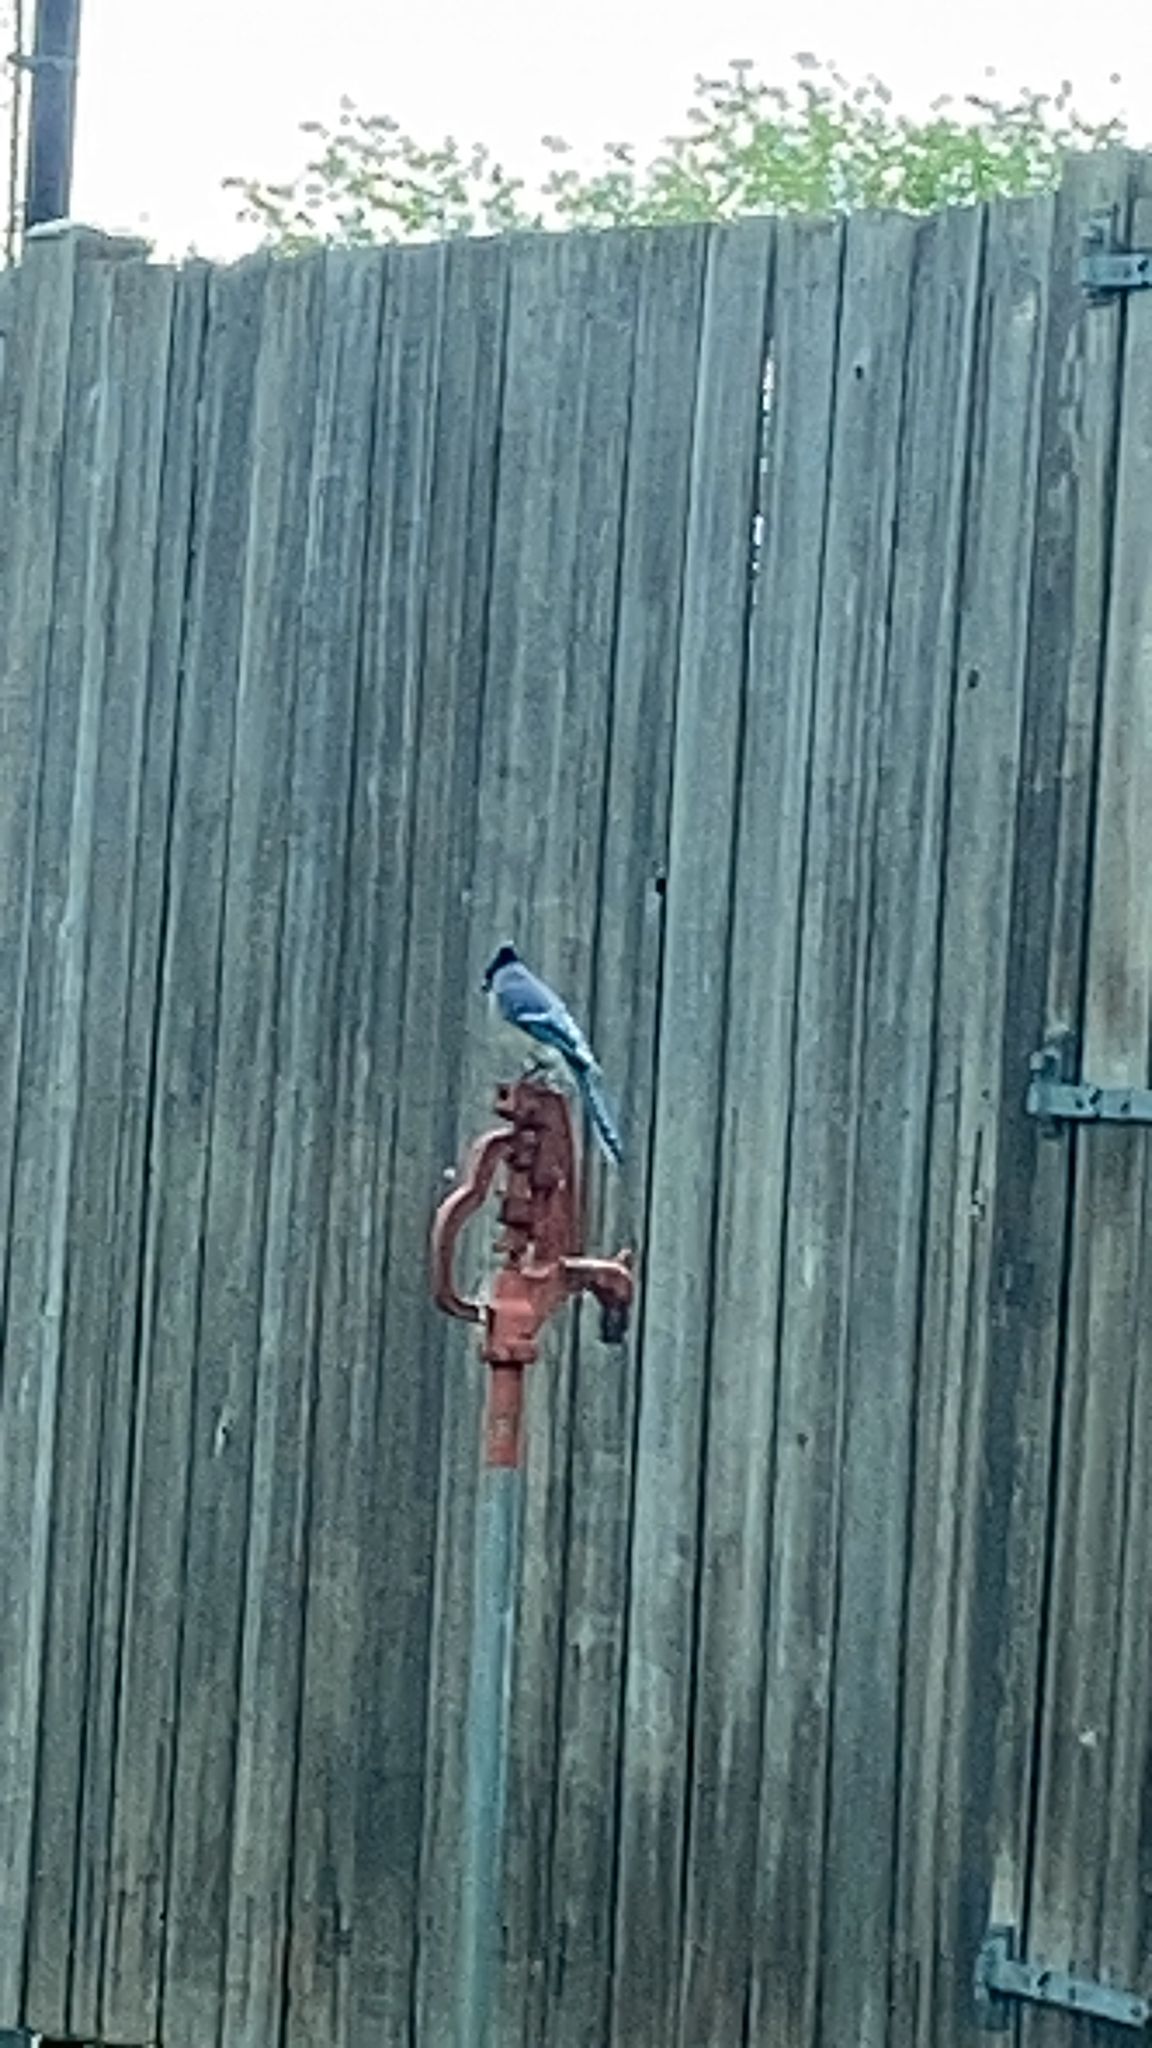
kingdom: Animalia
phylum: Chordata
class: Aves
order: Passeriformes
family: Corvidae
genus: Cyanocitta
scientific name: Cyanocitta cristata
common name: Blue jay
